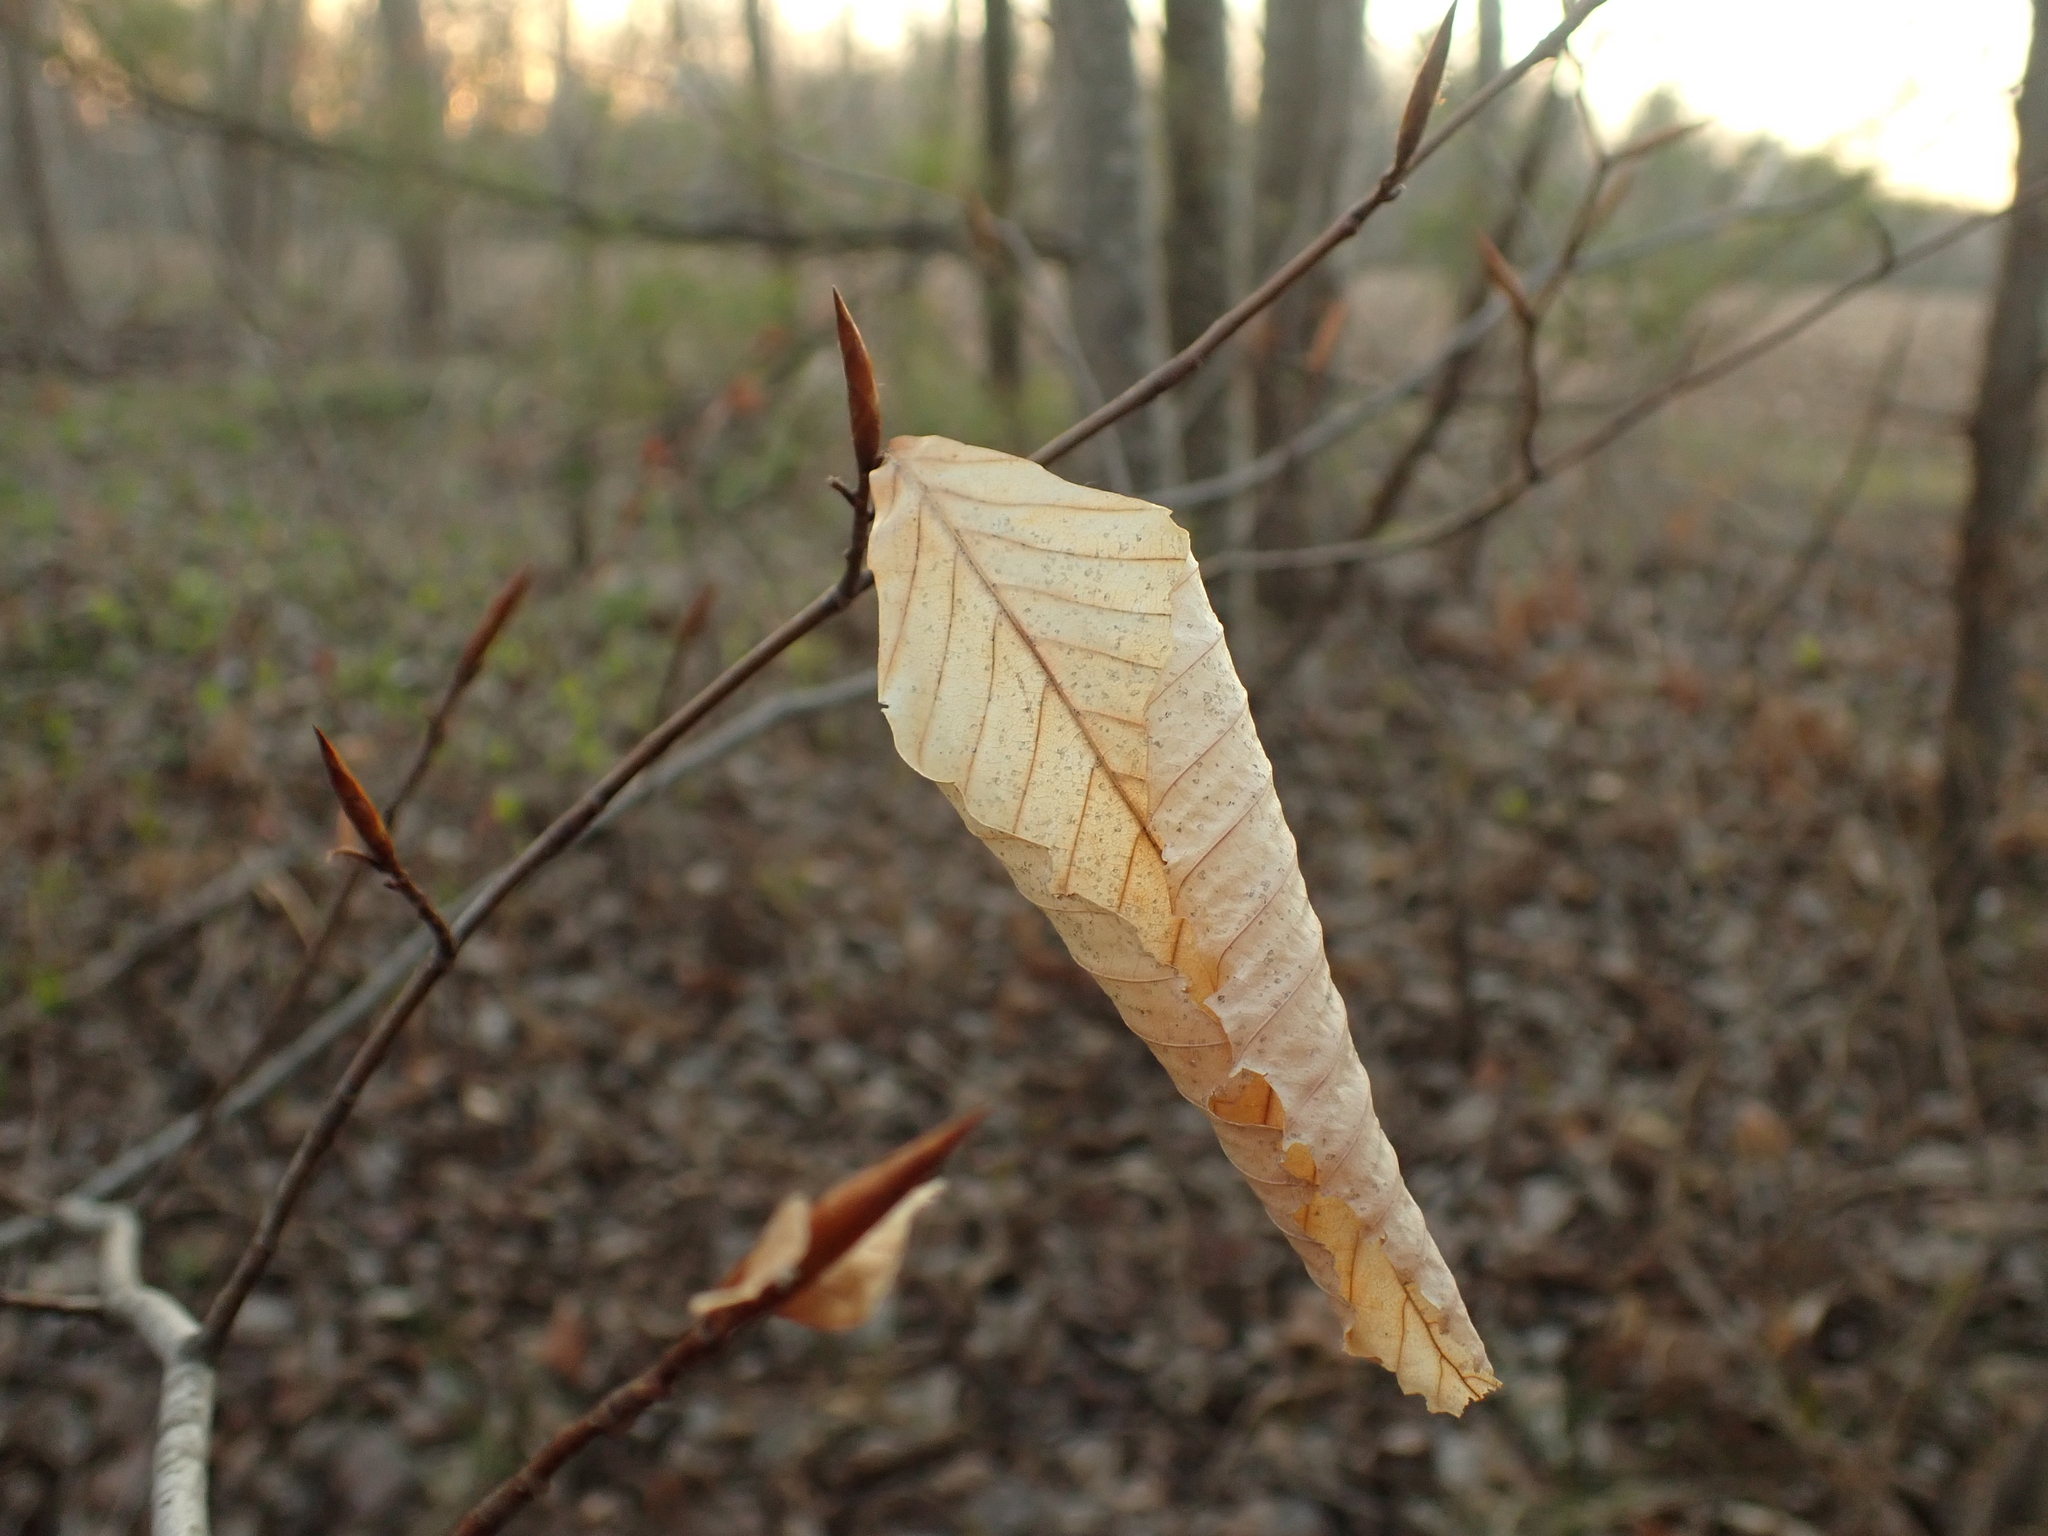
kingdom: Plantae
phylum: Tracheophyta
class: Magnoliopsida
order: Fagales
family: Fagaceae
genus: Fagus
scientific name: Fagus grandifolia
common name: American beech
